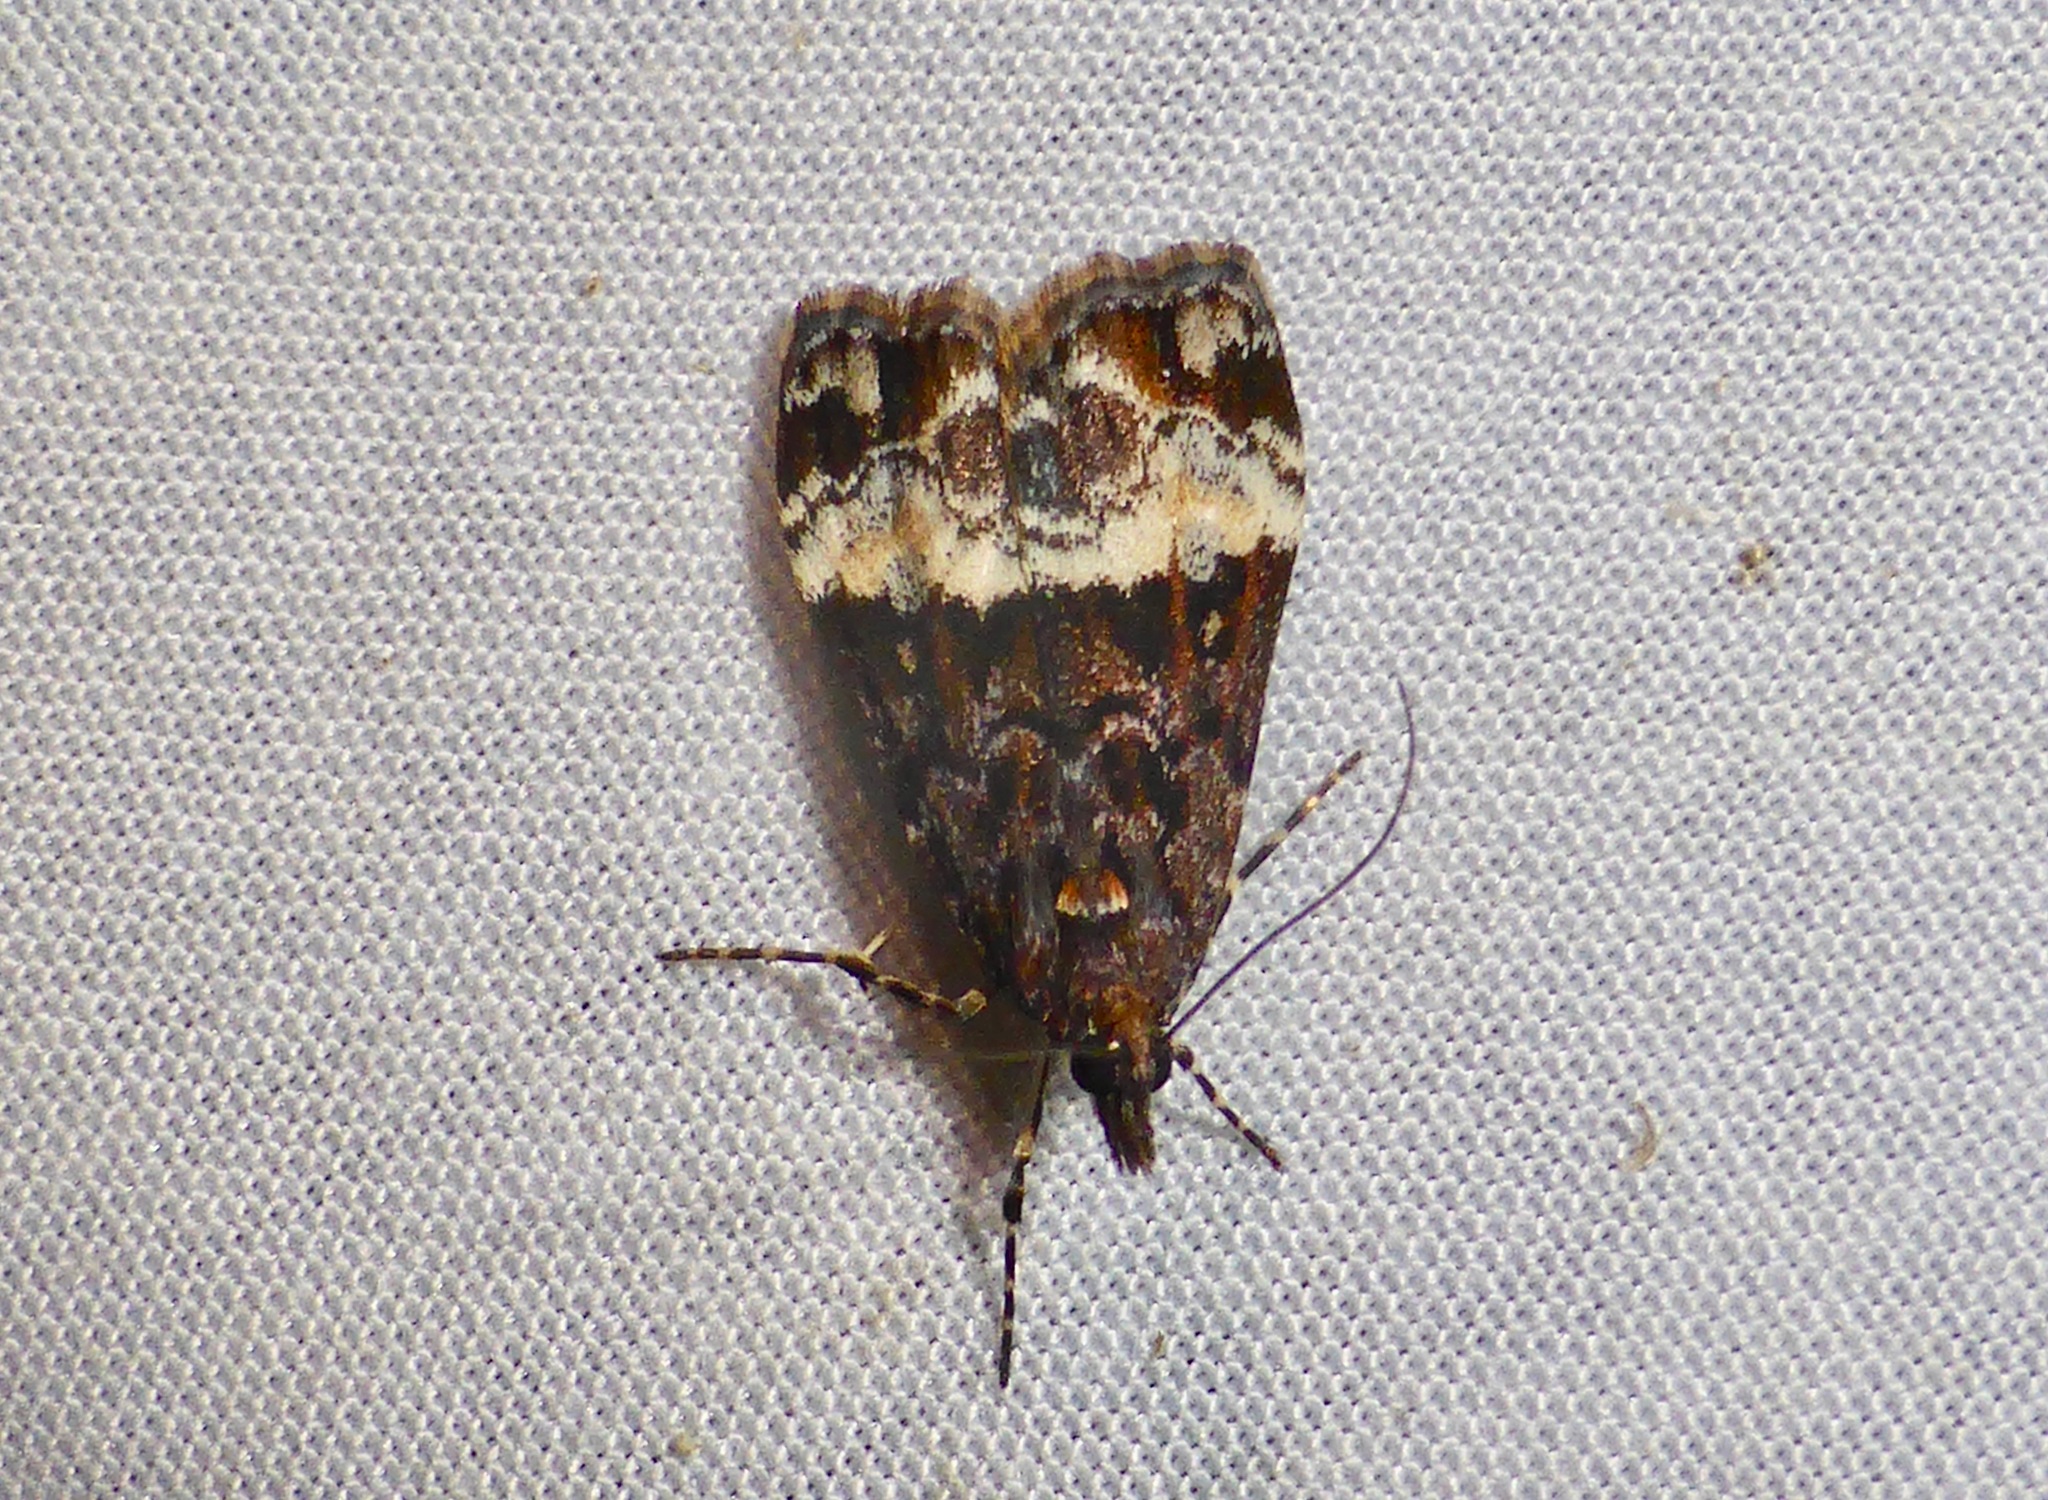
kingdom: Animalia
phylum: Arthropoda
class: Insecta
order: Lepidoptera
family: Crambidae
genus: Scoparia
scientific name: Scoparia minusculalis
